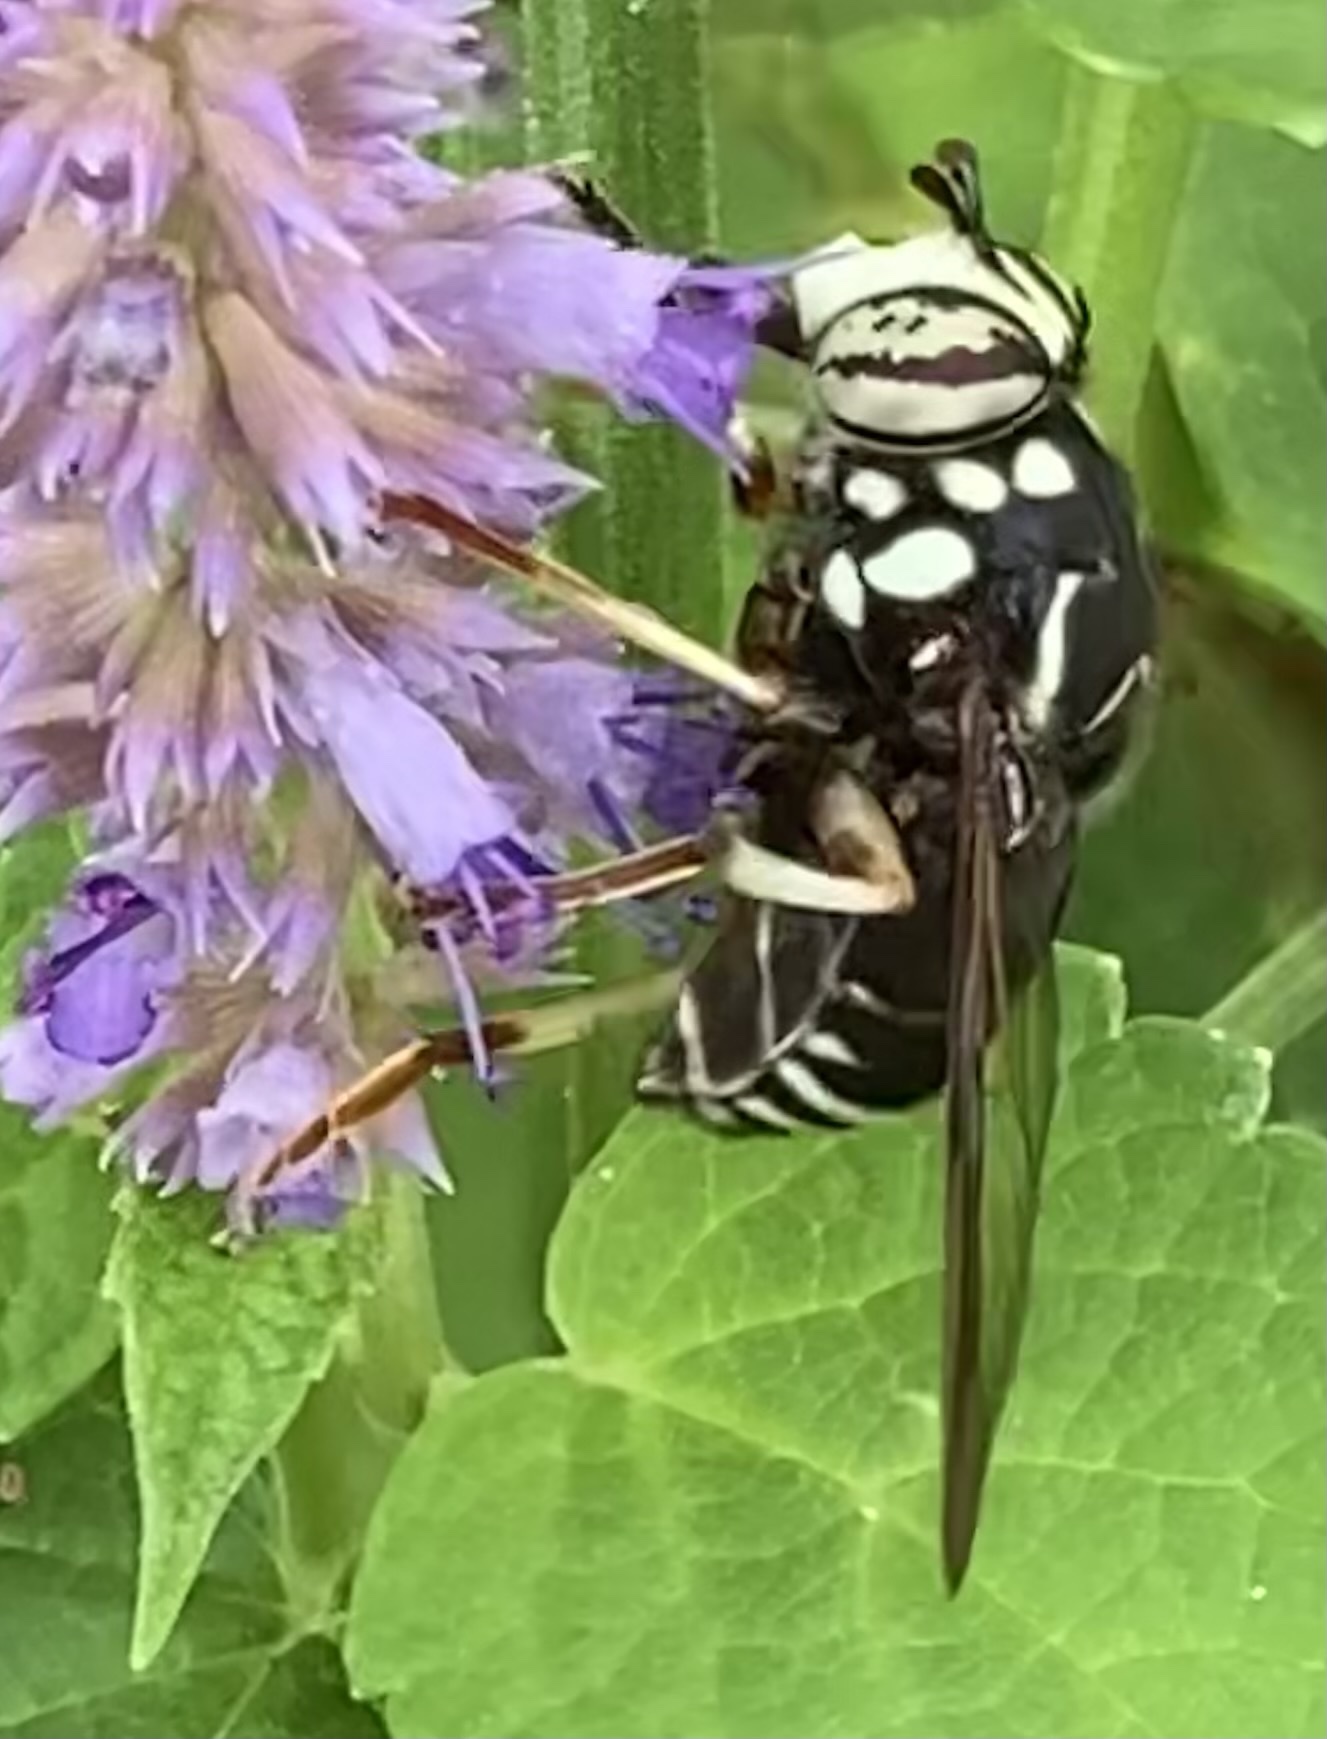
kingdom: Animalia
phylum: Arthropoda
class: Insecta
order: Diptera
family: Syrphidae
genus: Spilomyia
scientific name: Spilomyia fusca
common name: Bald-faced hornet fly
